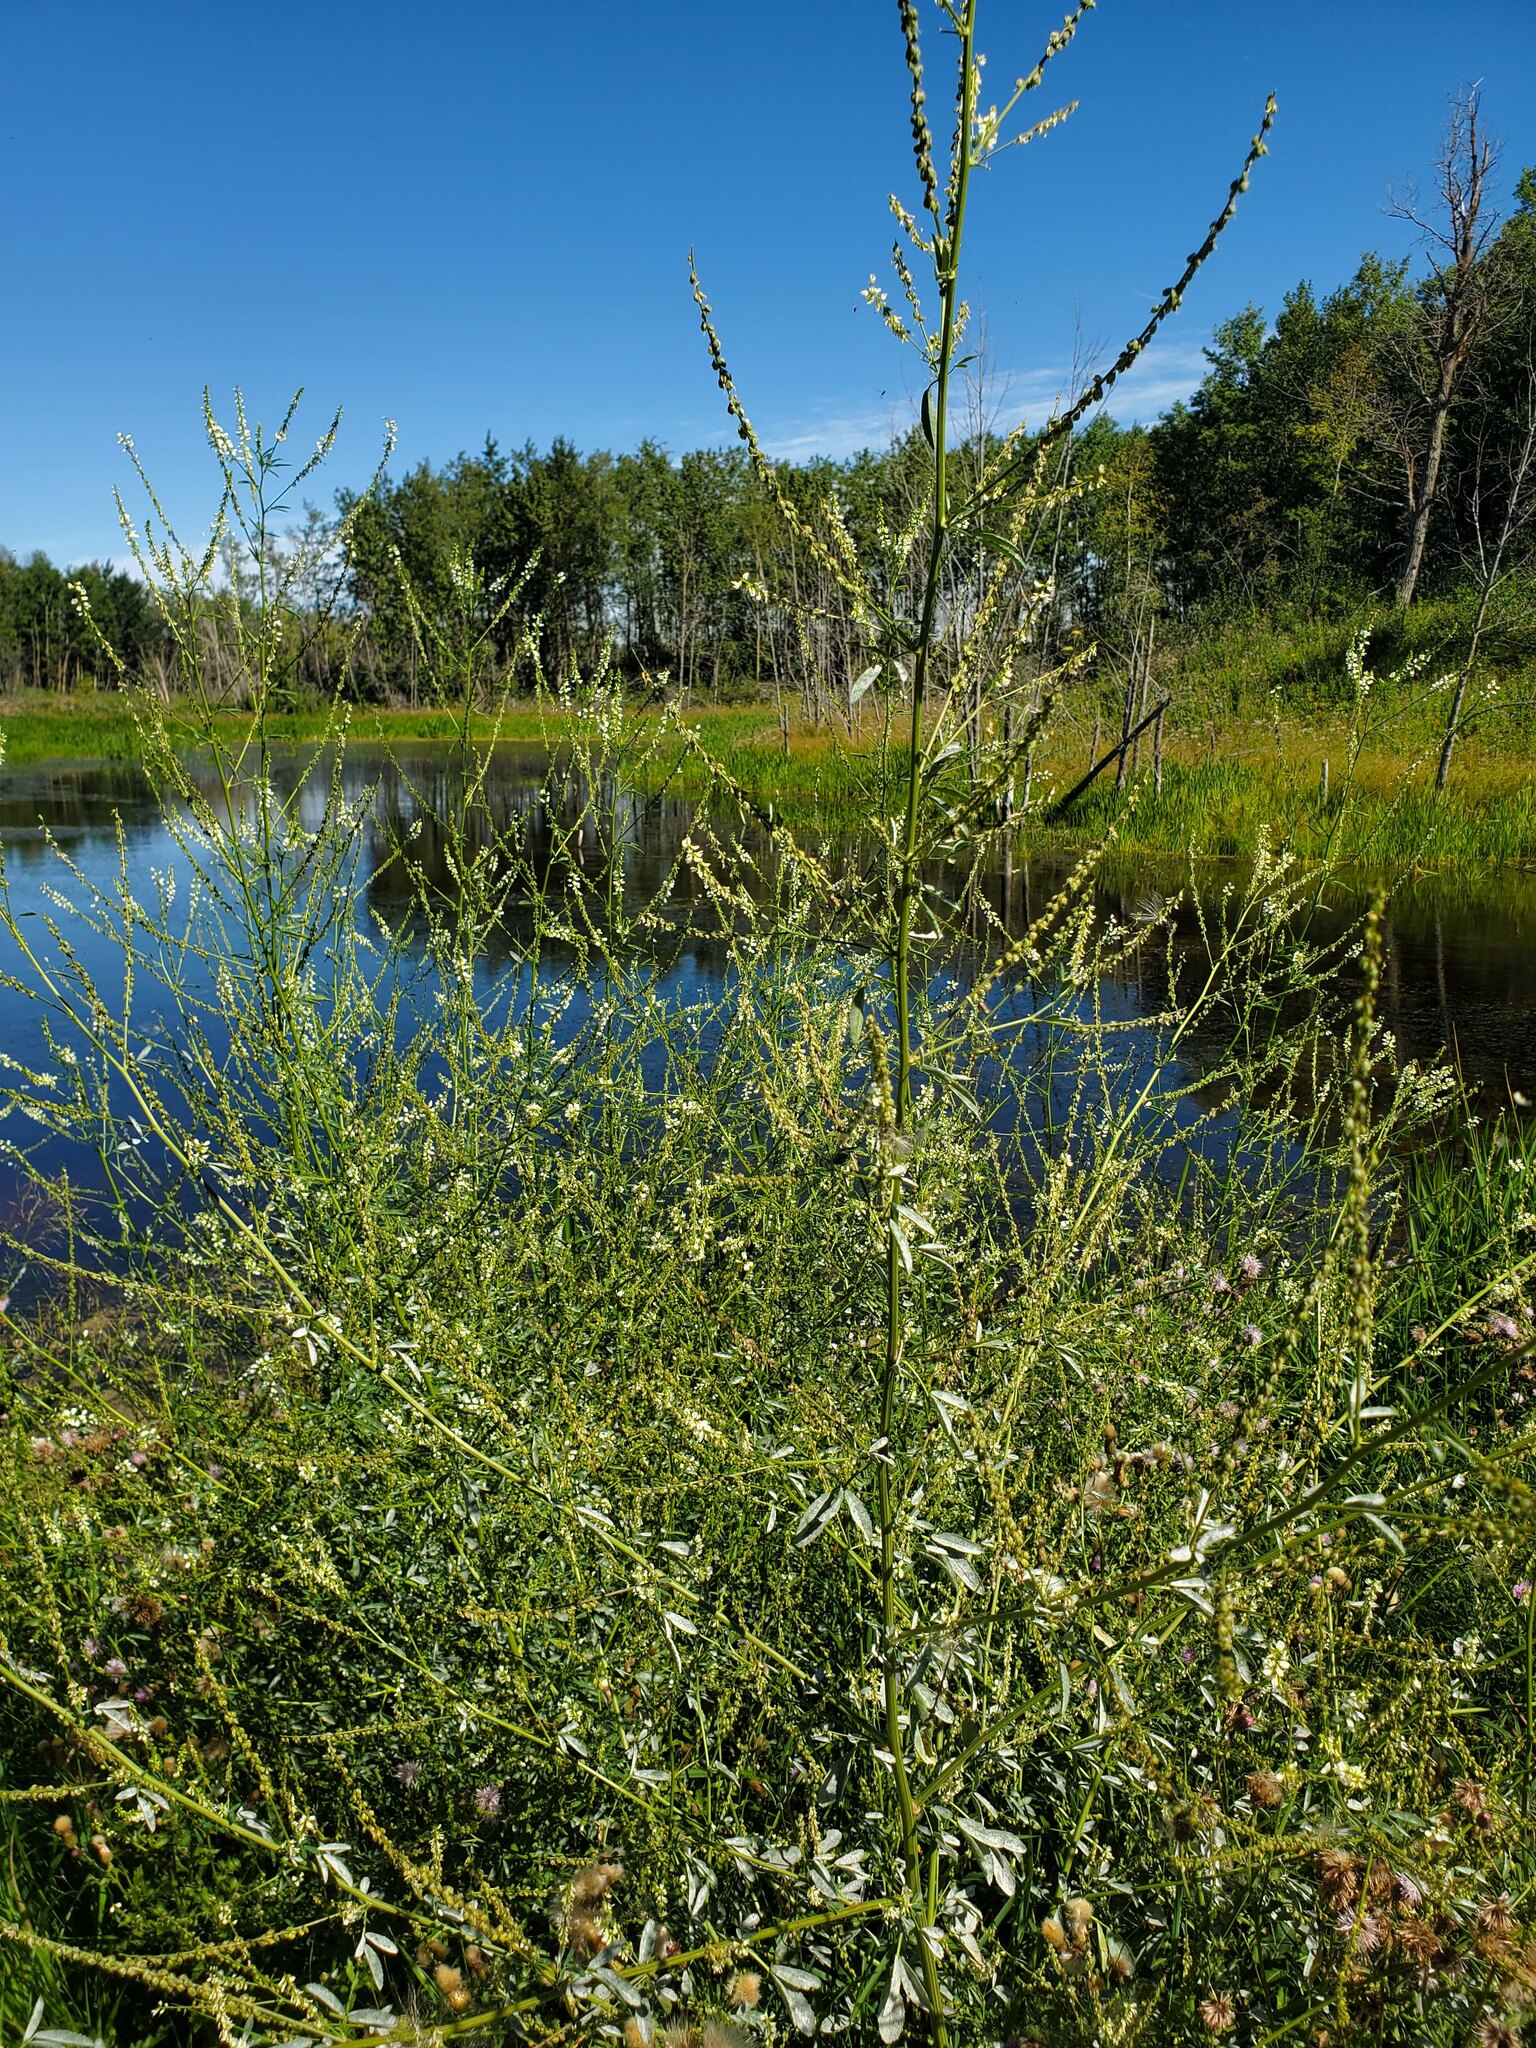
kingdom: Plantae
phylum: Tracheophyta
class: Magnoliopsida
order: Fabales
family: Fabaceae
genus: Melilotus
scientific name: Melilotus albus
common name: White melilot
